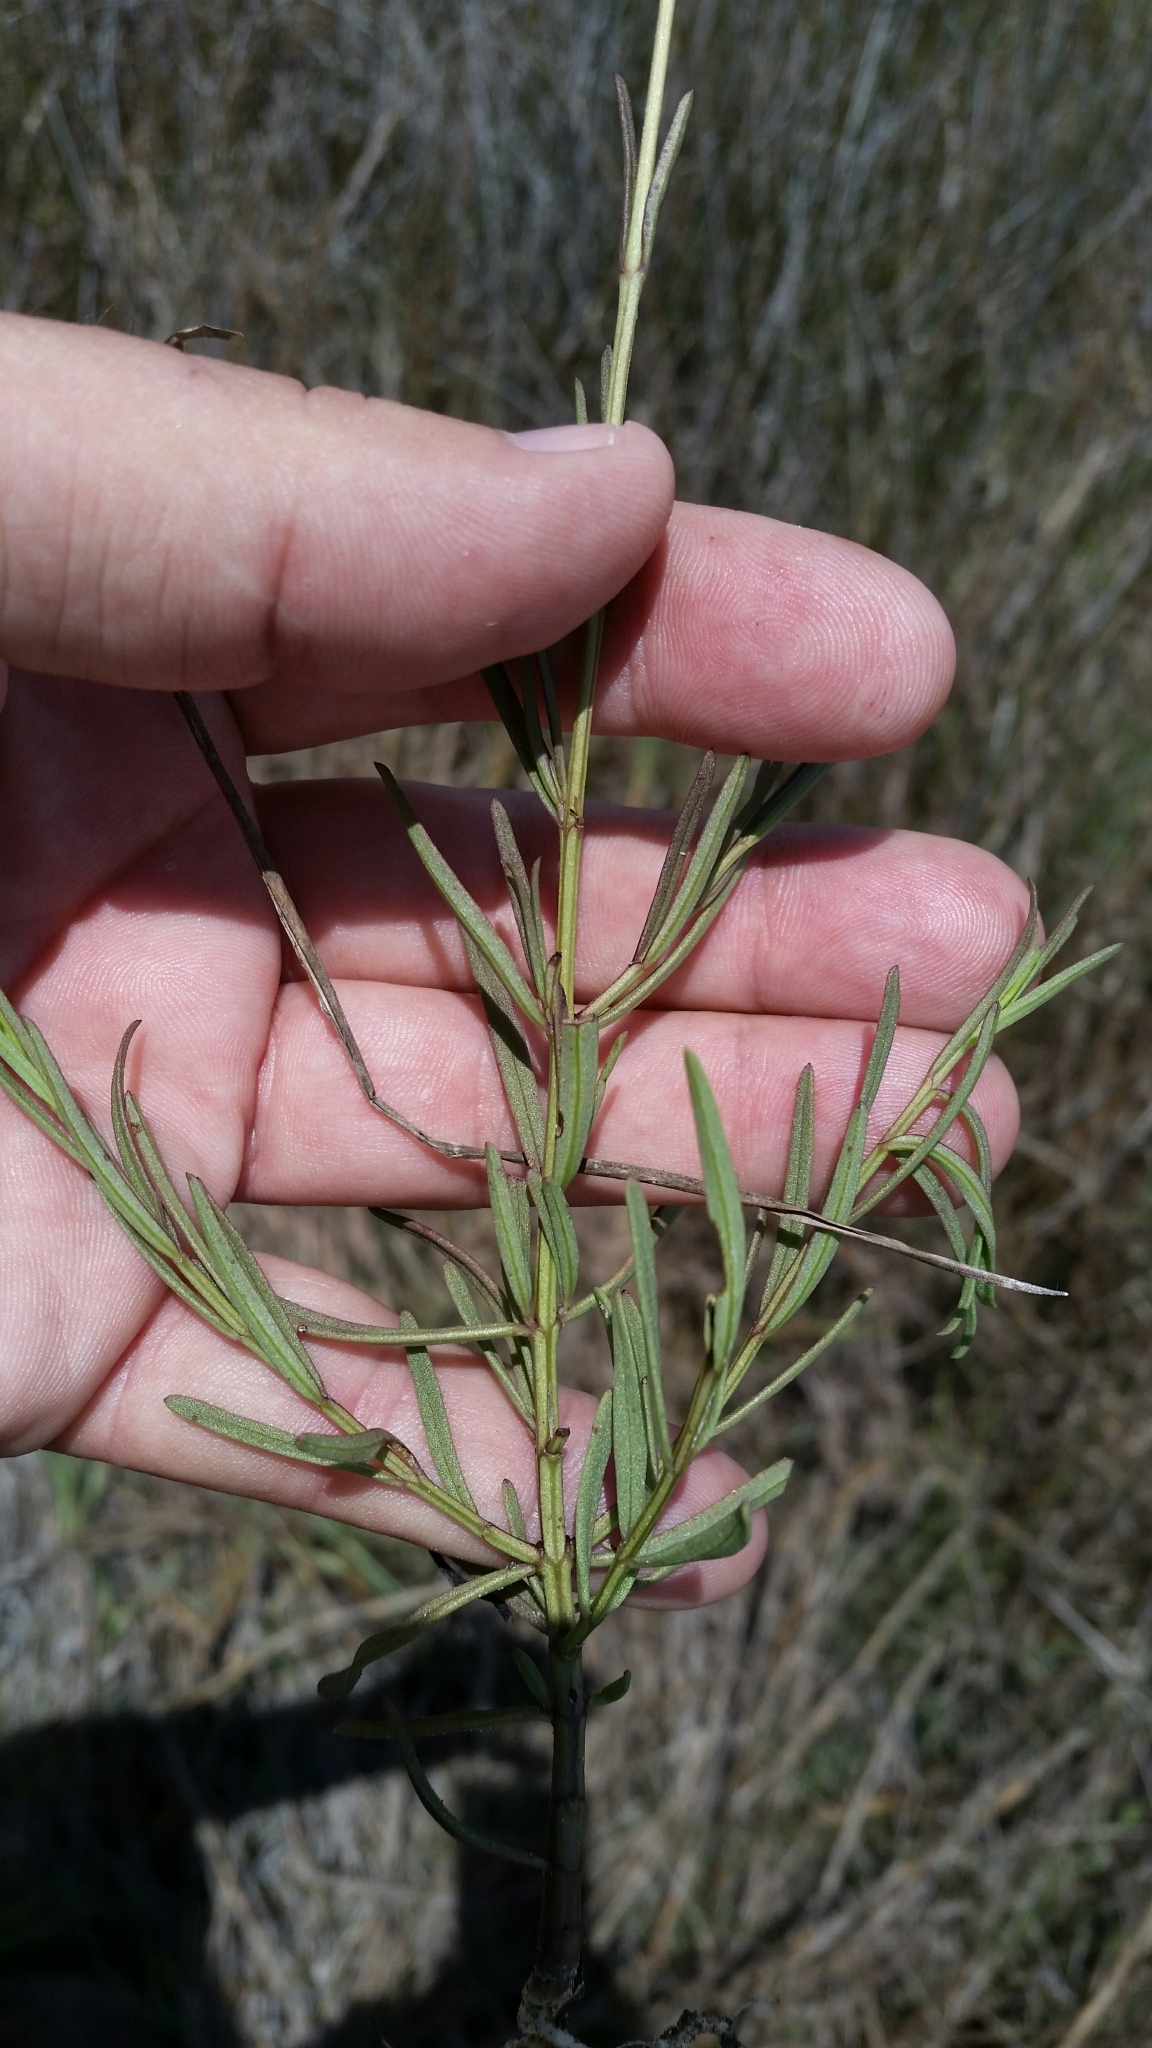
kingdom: Plantae
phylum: Tracheophyta
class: Magnoliopsida
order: Lamiales
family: Orobanchaceae
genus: Agalinis
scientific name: Agalinis maritima
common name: Saltmarsh agalinis
